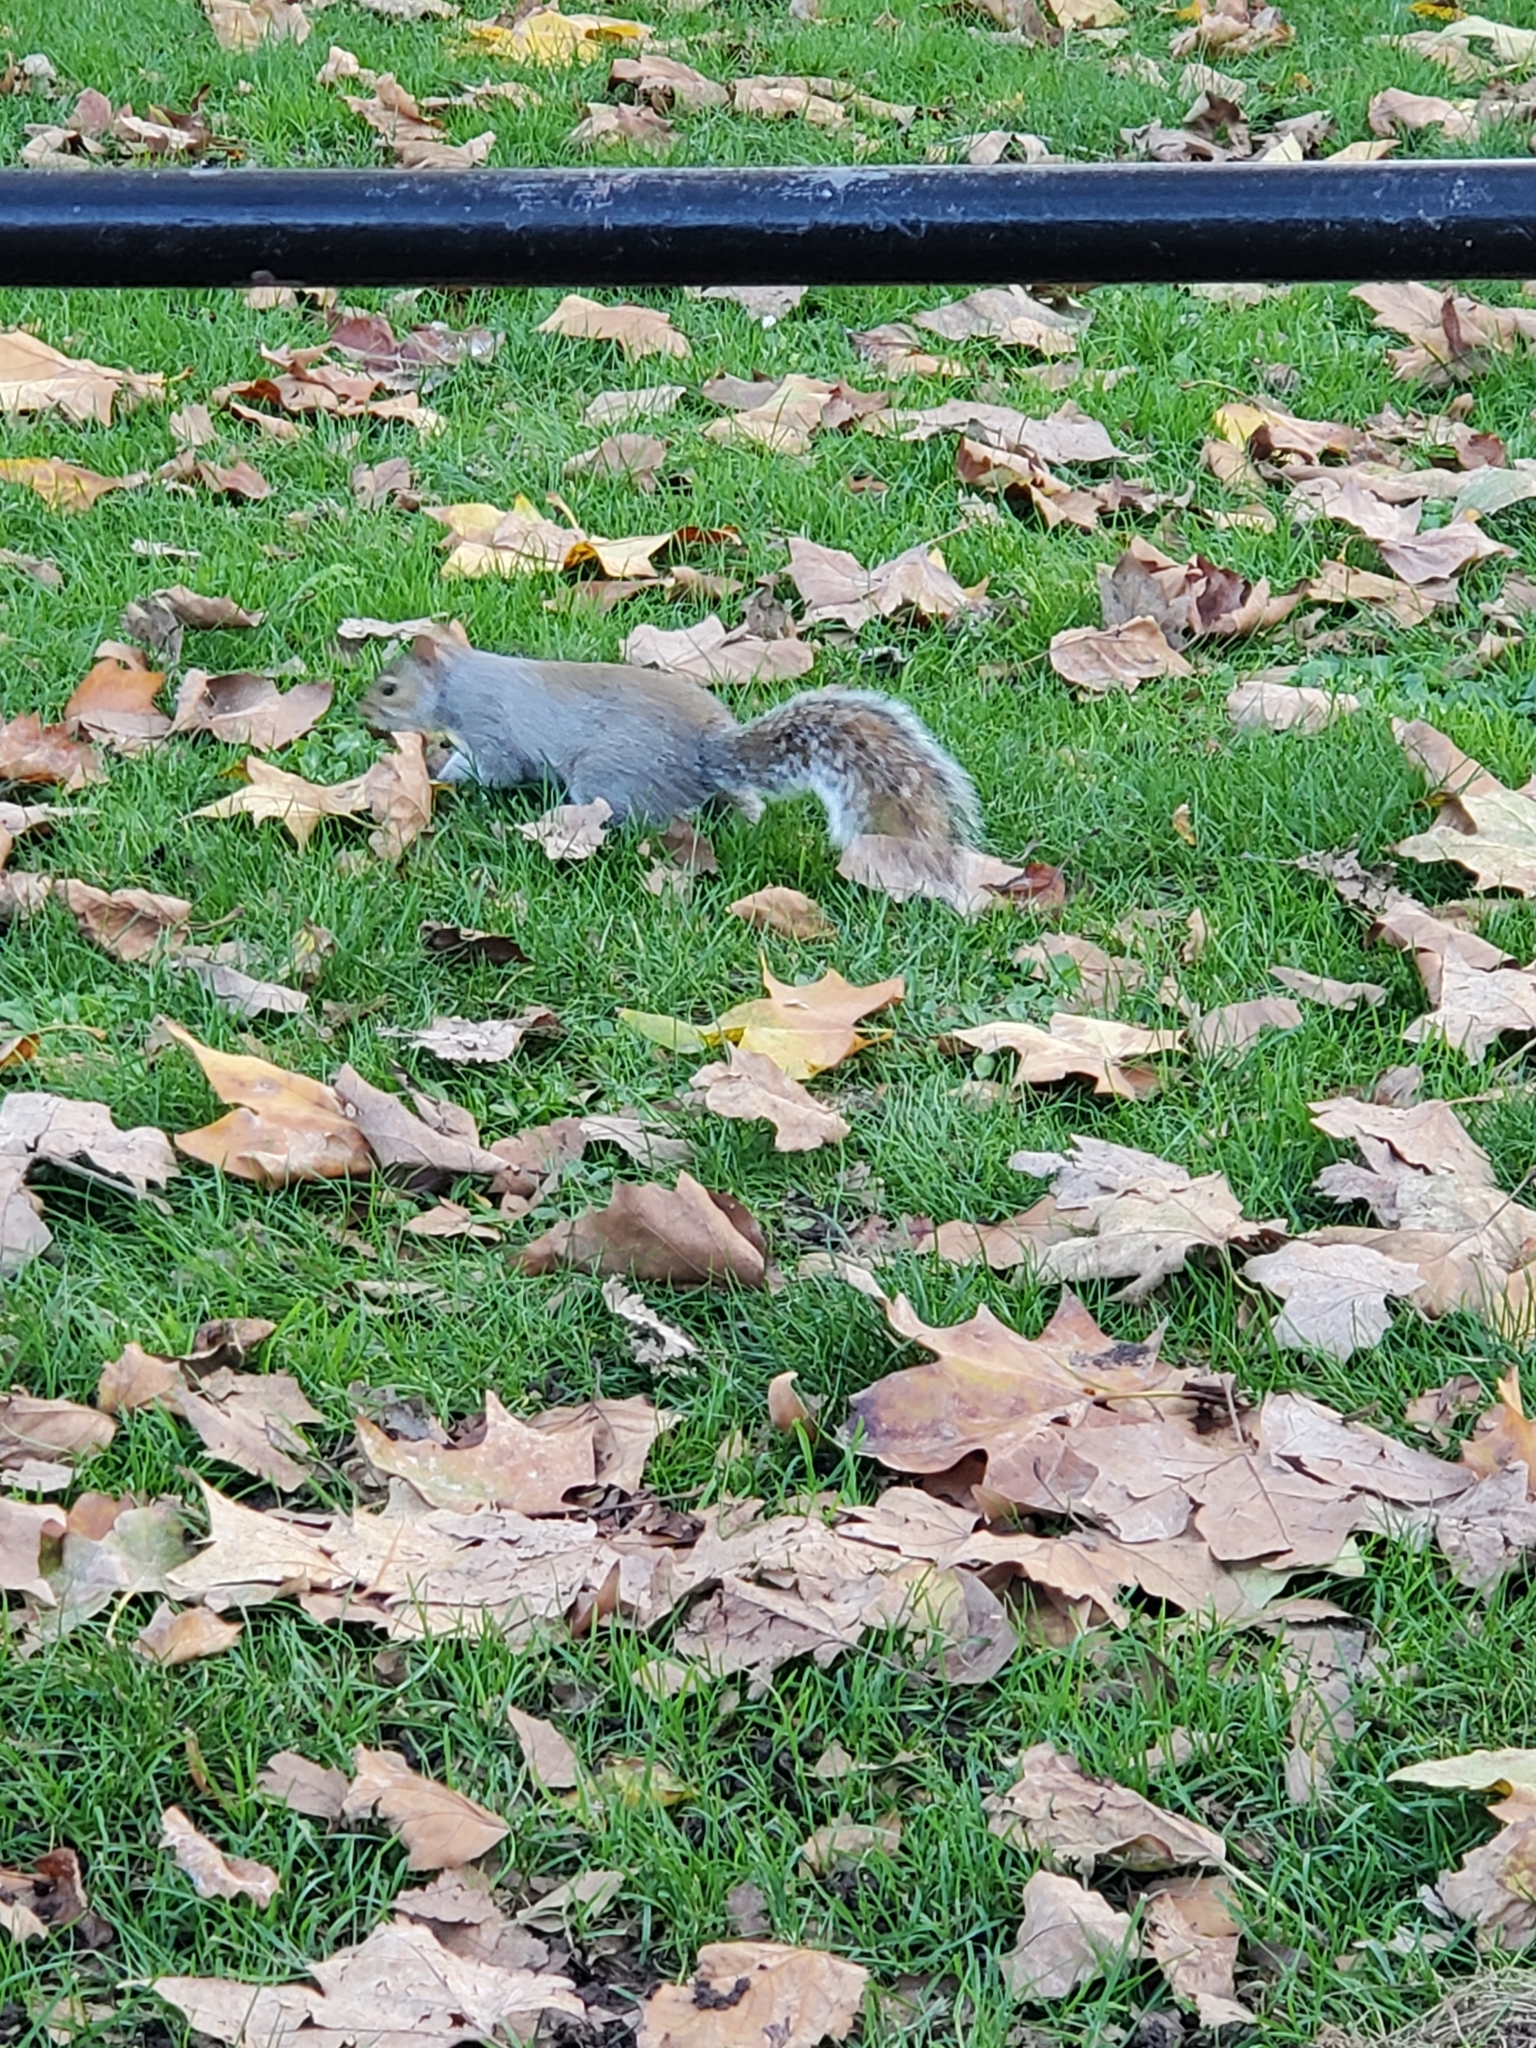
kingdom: Animalia
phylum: Chordata
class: Mammalia
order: Rodentia
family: Sciuridae
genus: Sciurus
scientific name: Sciurus carolinensis
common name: Eastern gray squirrel
